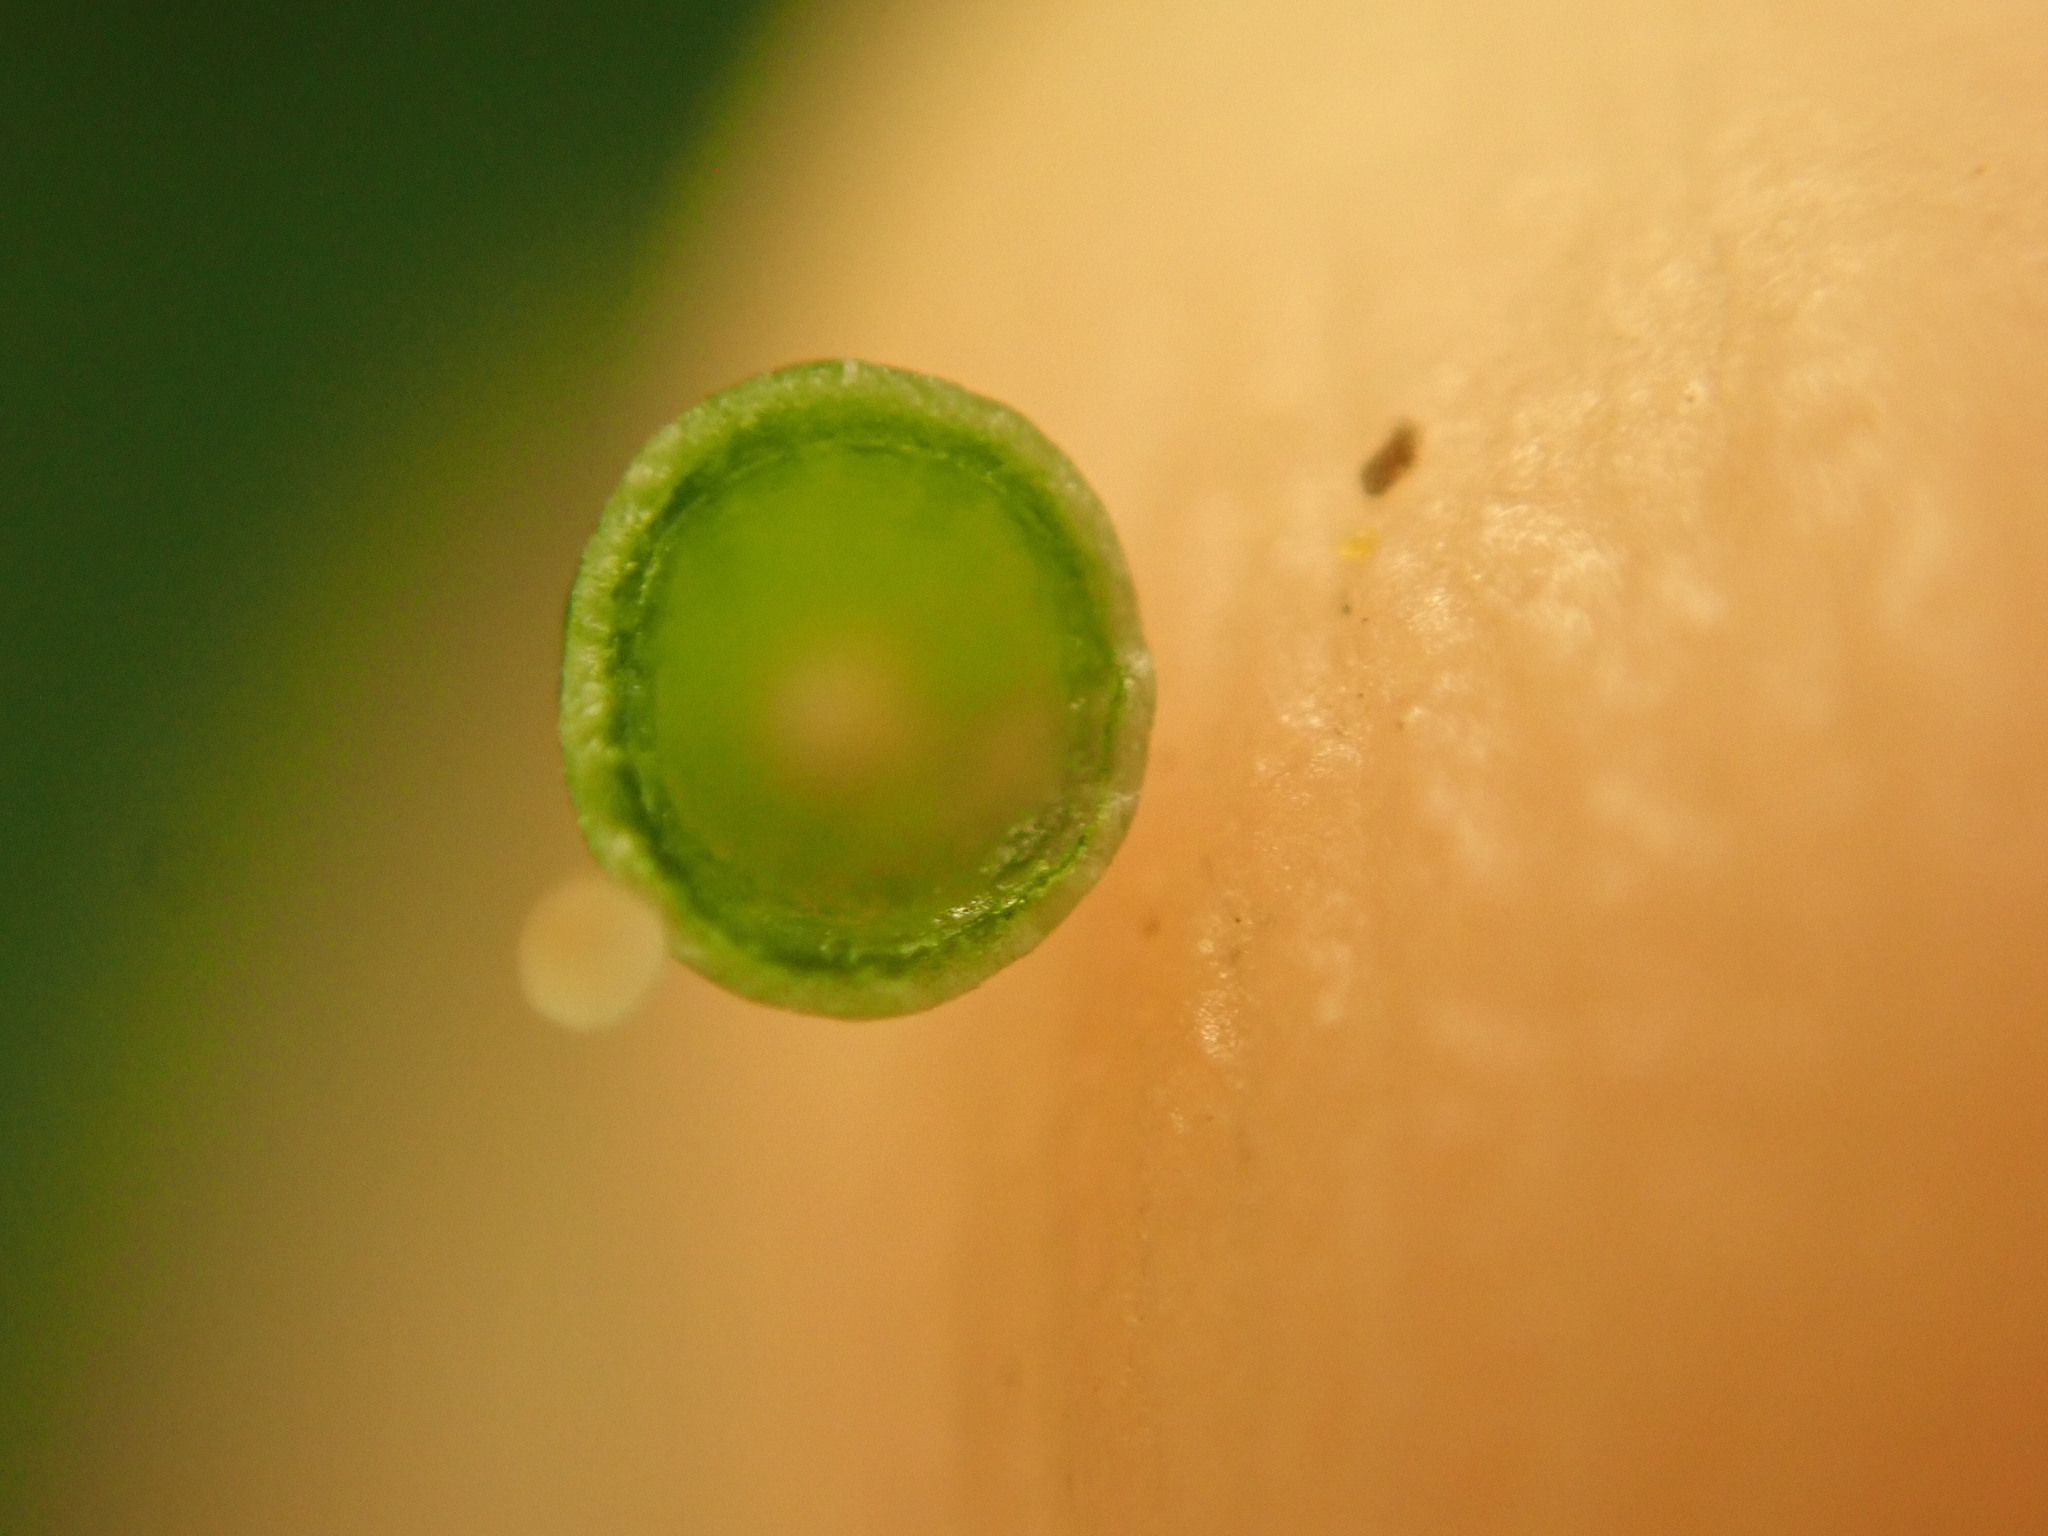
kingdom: Animalia
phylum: Arthropoda
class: Insecta
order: Diptera
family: Cecidomyiidae
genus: Caryomyia
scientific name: Caryomyia urnula
